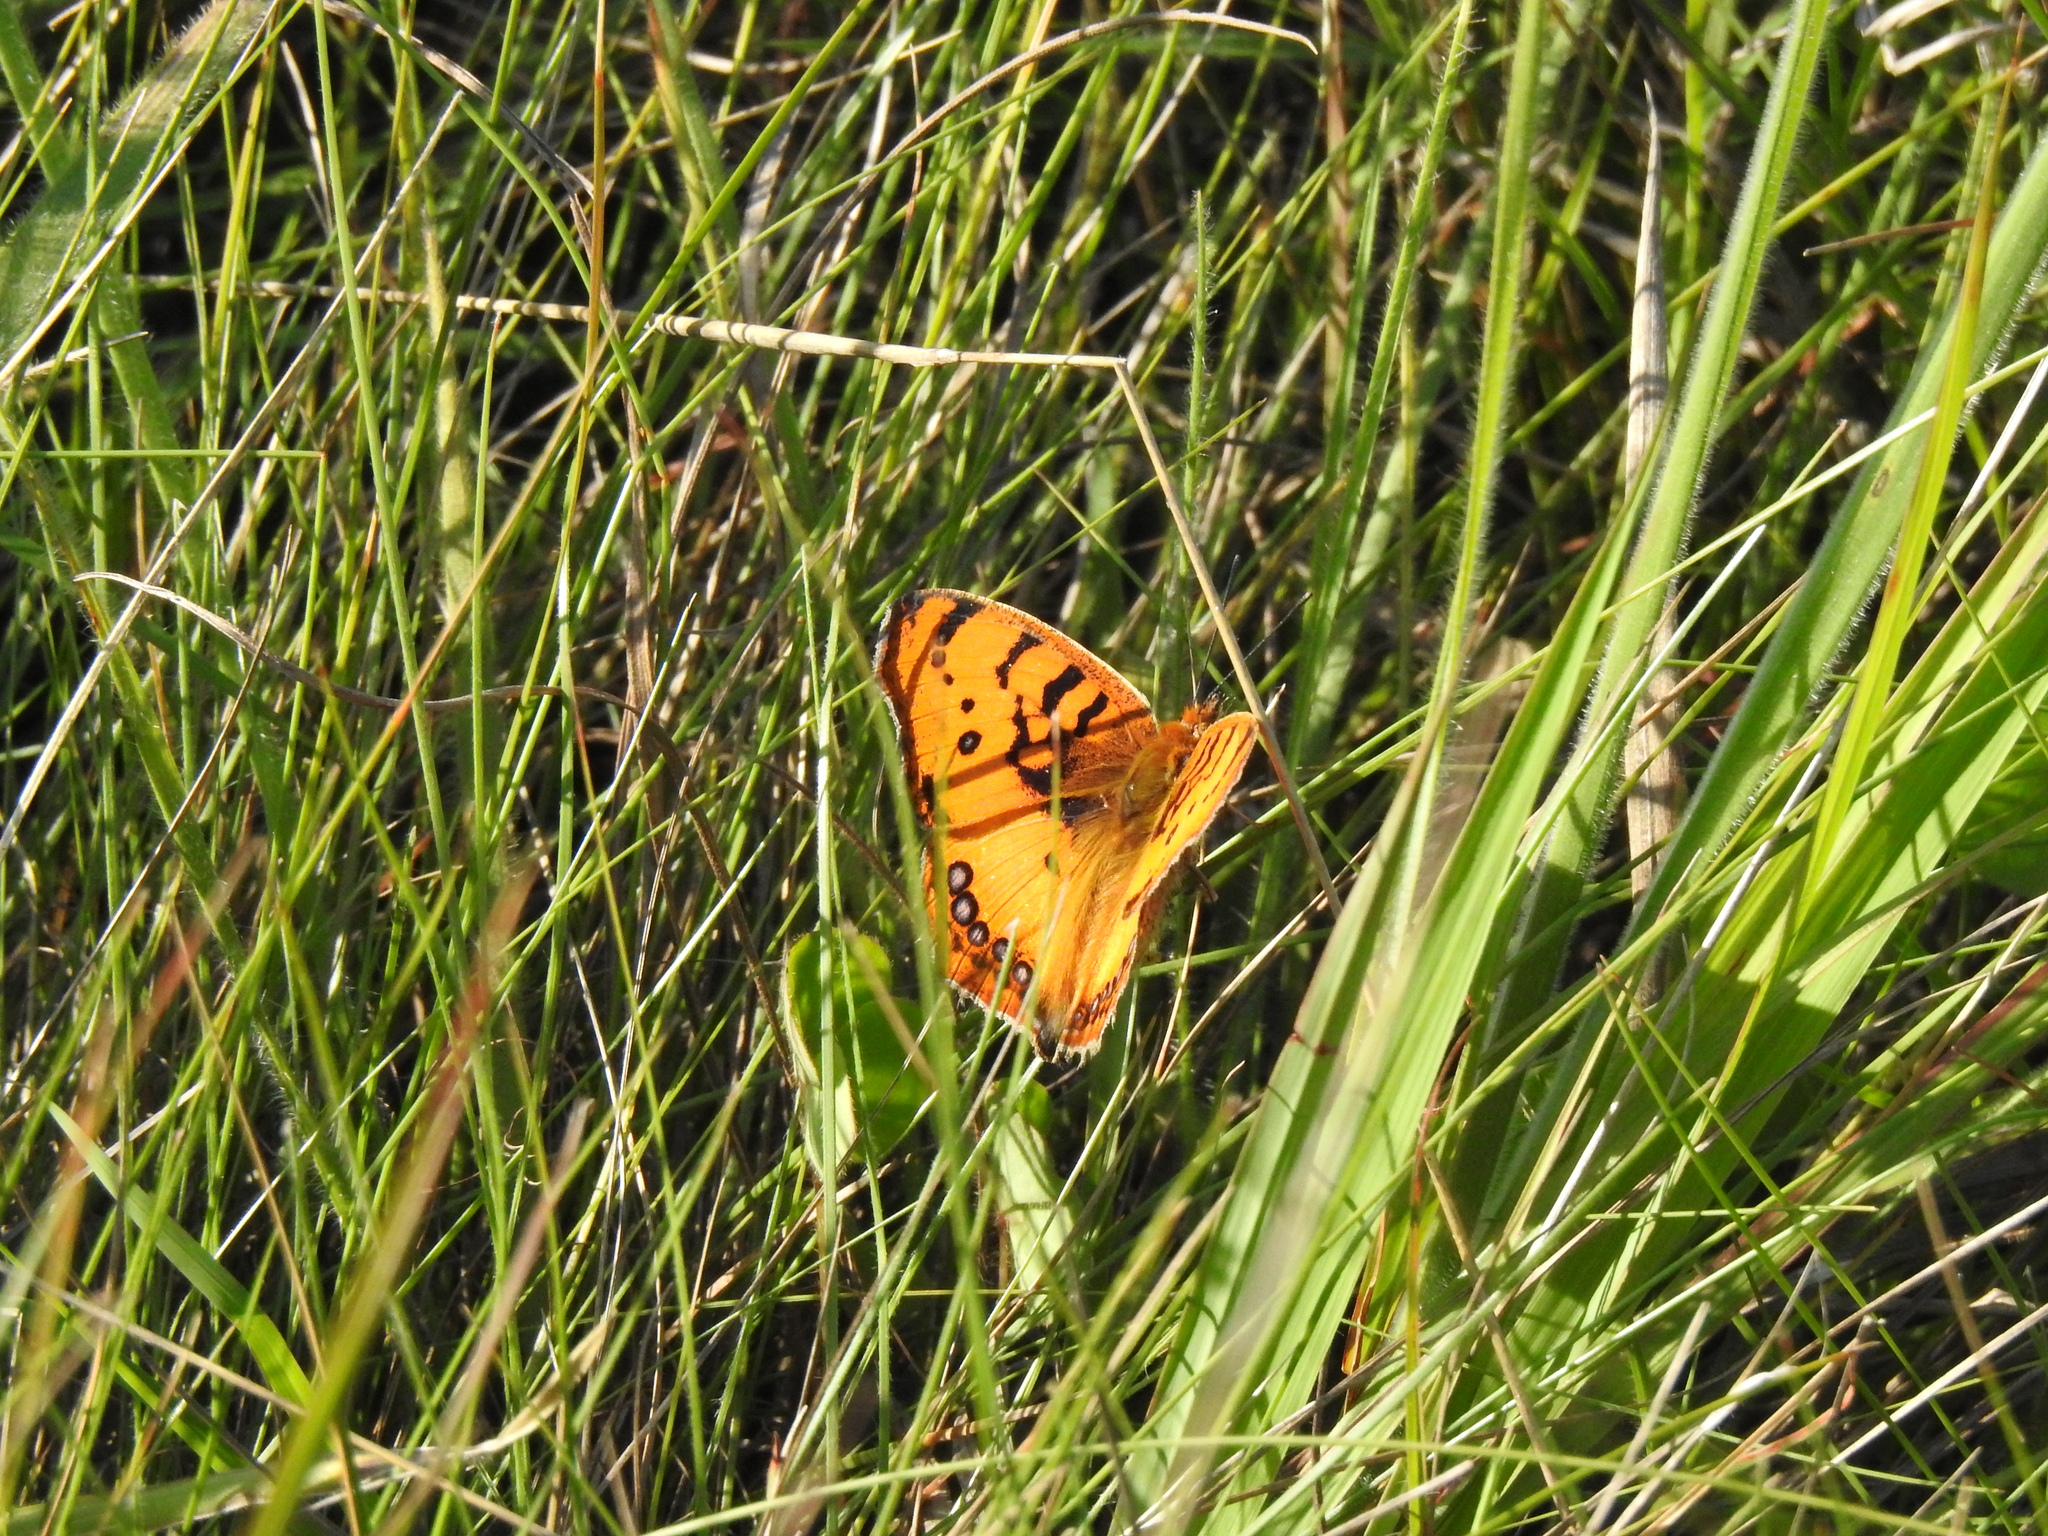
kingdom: Animalia
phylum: Arthropoda
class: Insecta
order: Lepidoptera
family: Nymphalidae
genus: Catacroptera
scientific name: Catacroptera cloanthe
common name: Pirate
